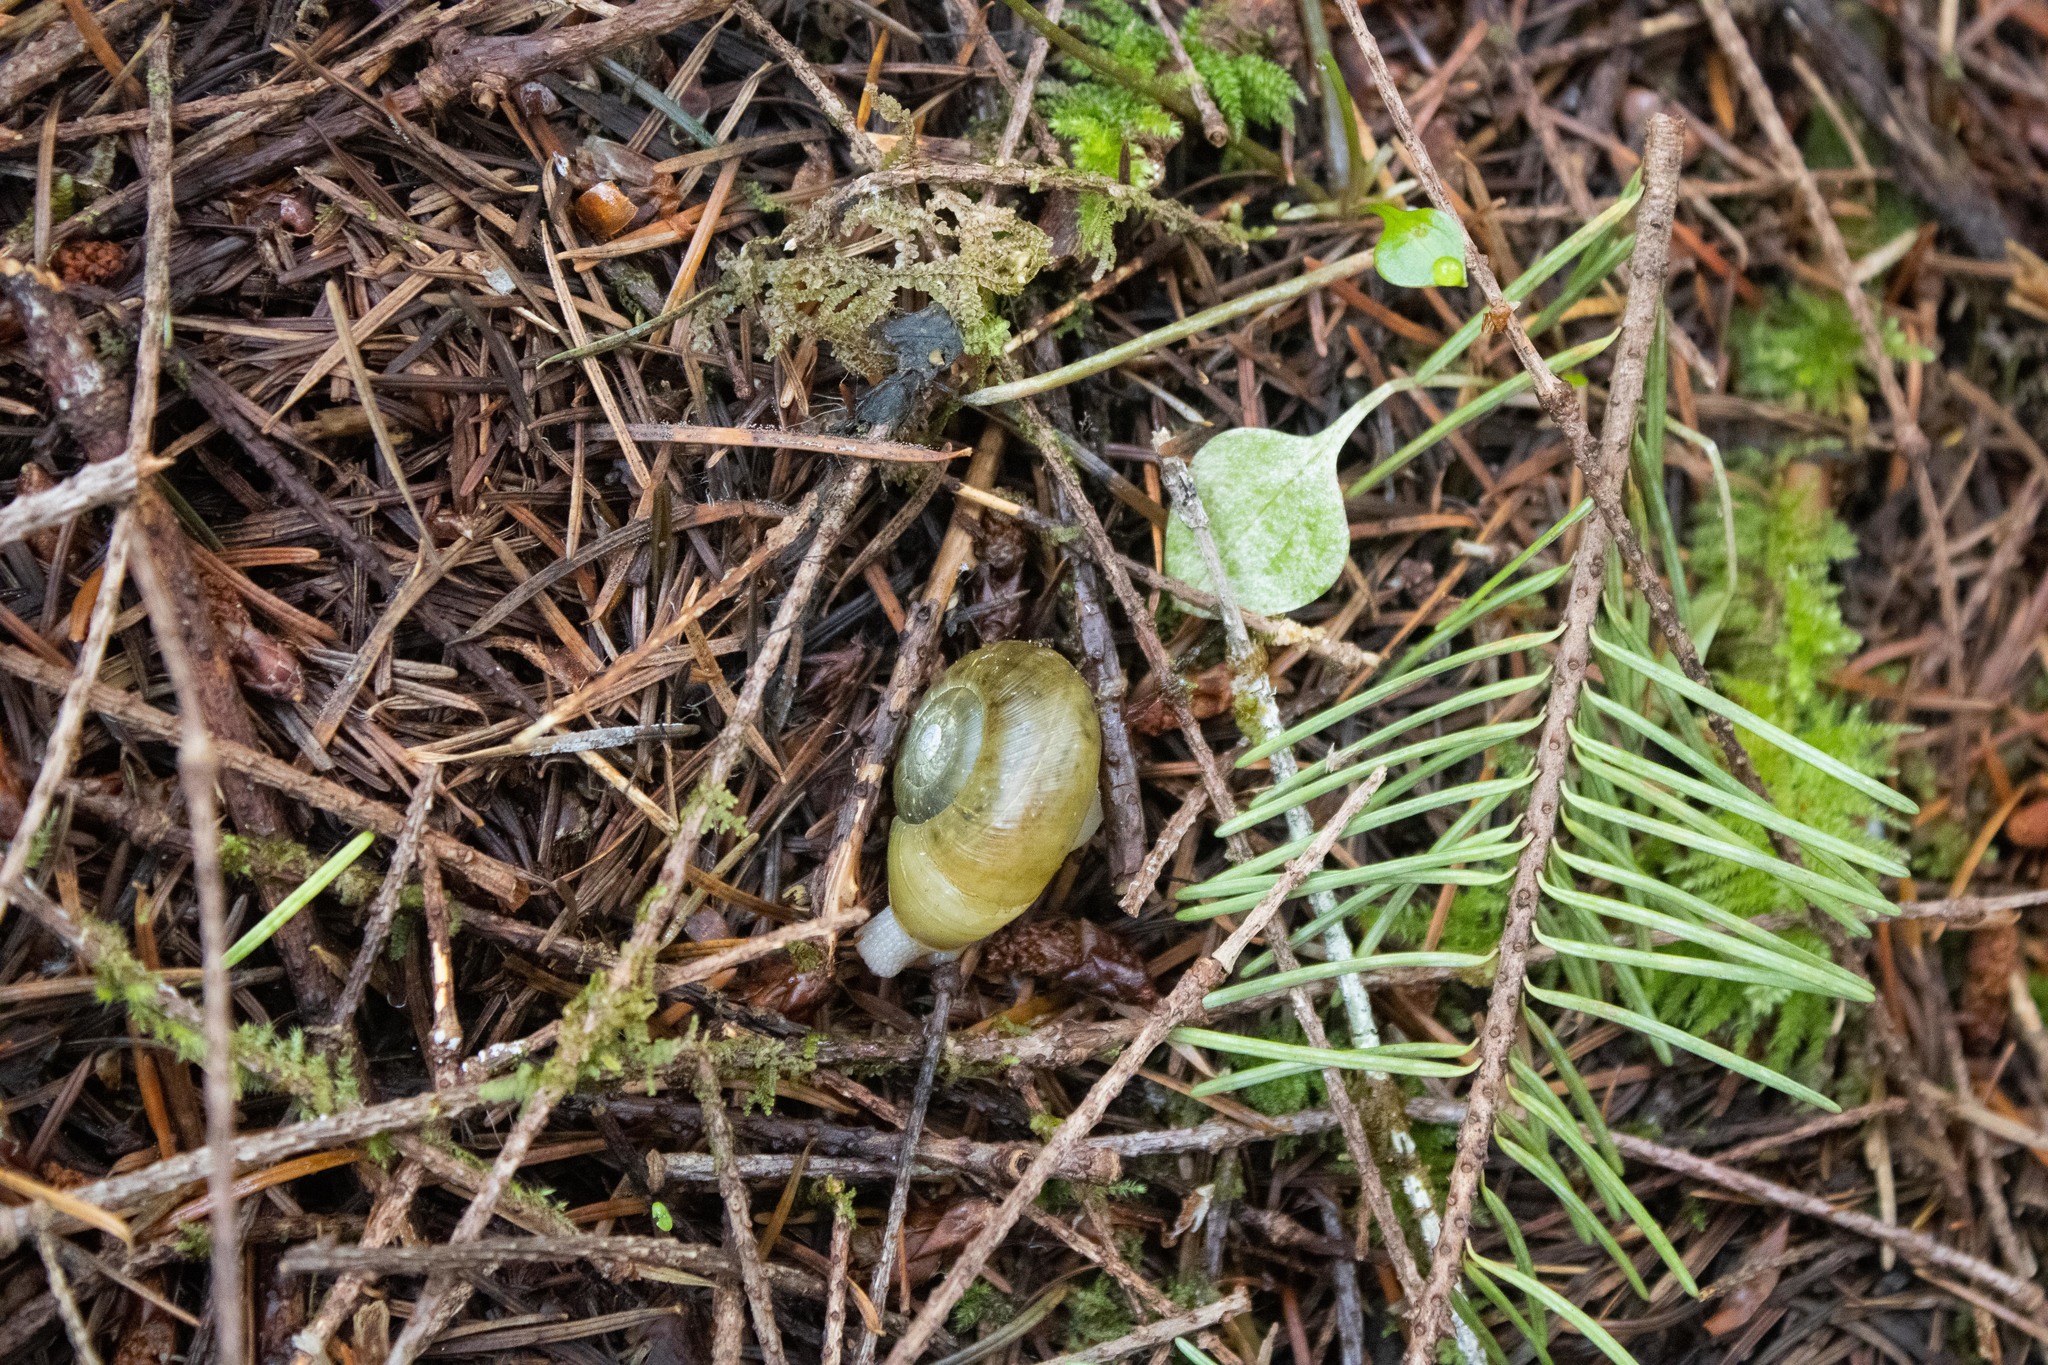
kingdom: Animalia
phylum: Mollusca
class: Gastropoda
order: Stylommatophora
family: Haplotrematidae
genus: Haplotrema
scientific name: Haplotrema vancouverense
